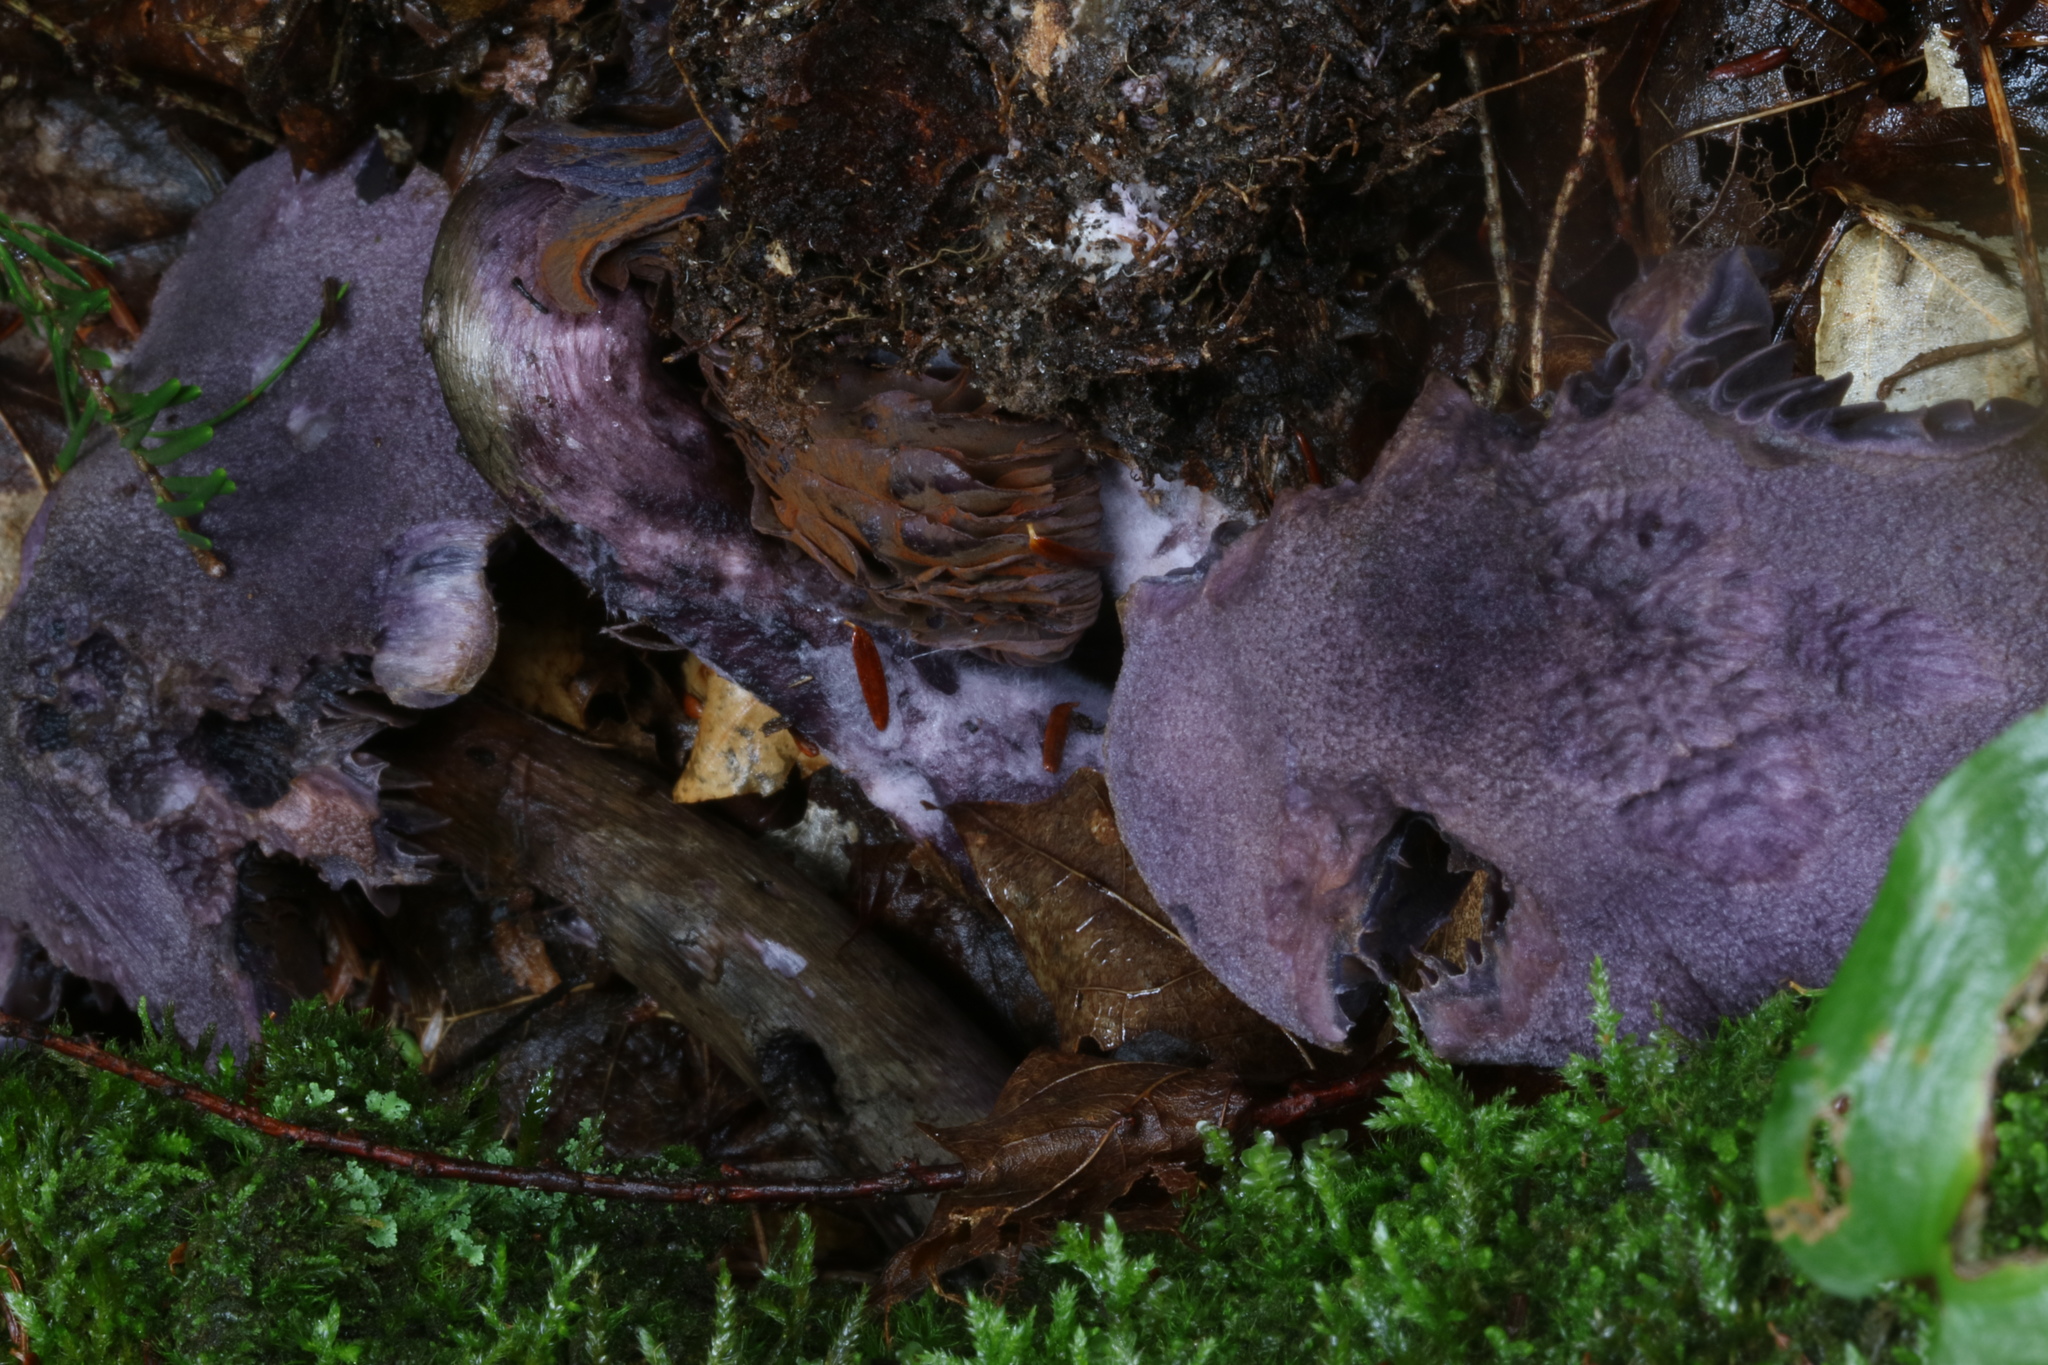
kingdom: Fungi
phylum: Basidiomycota
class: Agaricomycetes
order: Agaricales
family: Cortinariaceae
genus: Cortinarius
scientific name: Cortinarius violaceus
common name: Violet webcap
